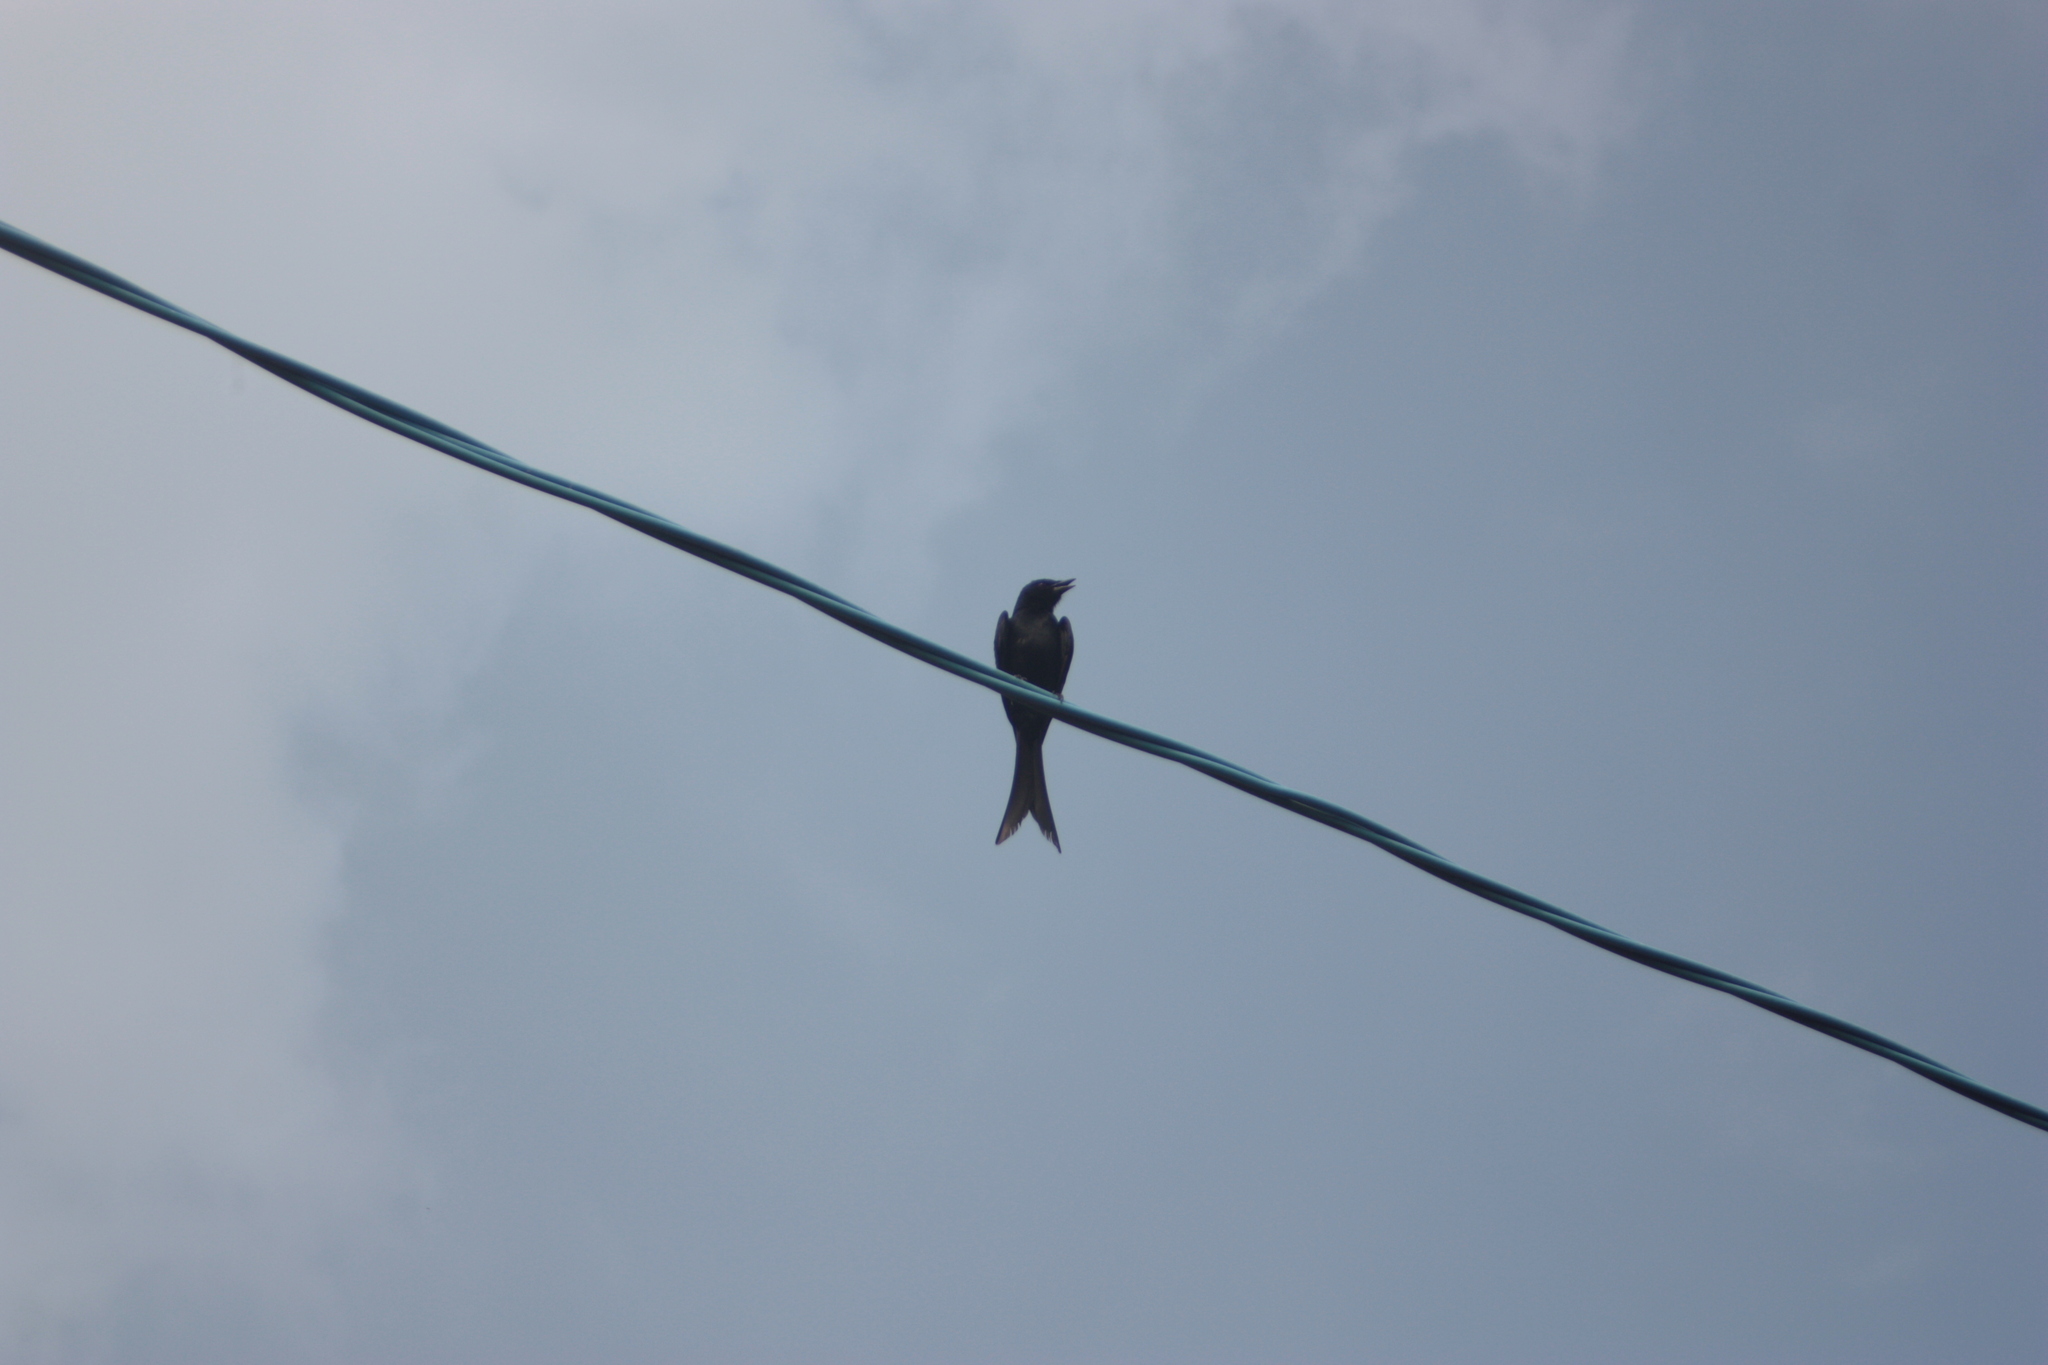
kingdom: Animalia
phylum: Chordata
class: Aves
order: Passeriformes
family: Dicruridae
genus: Dicrurus
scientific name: Dicrurus macrocercus
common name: Black drongo
